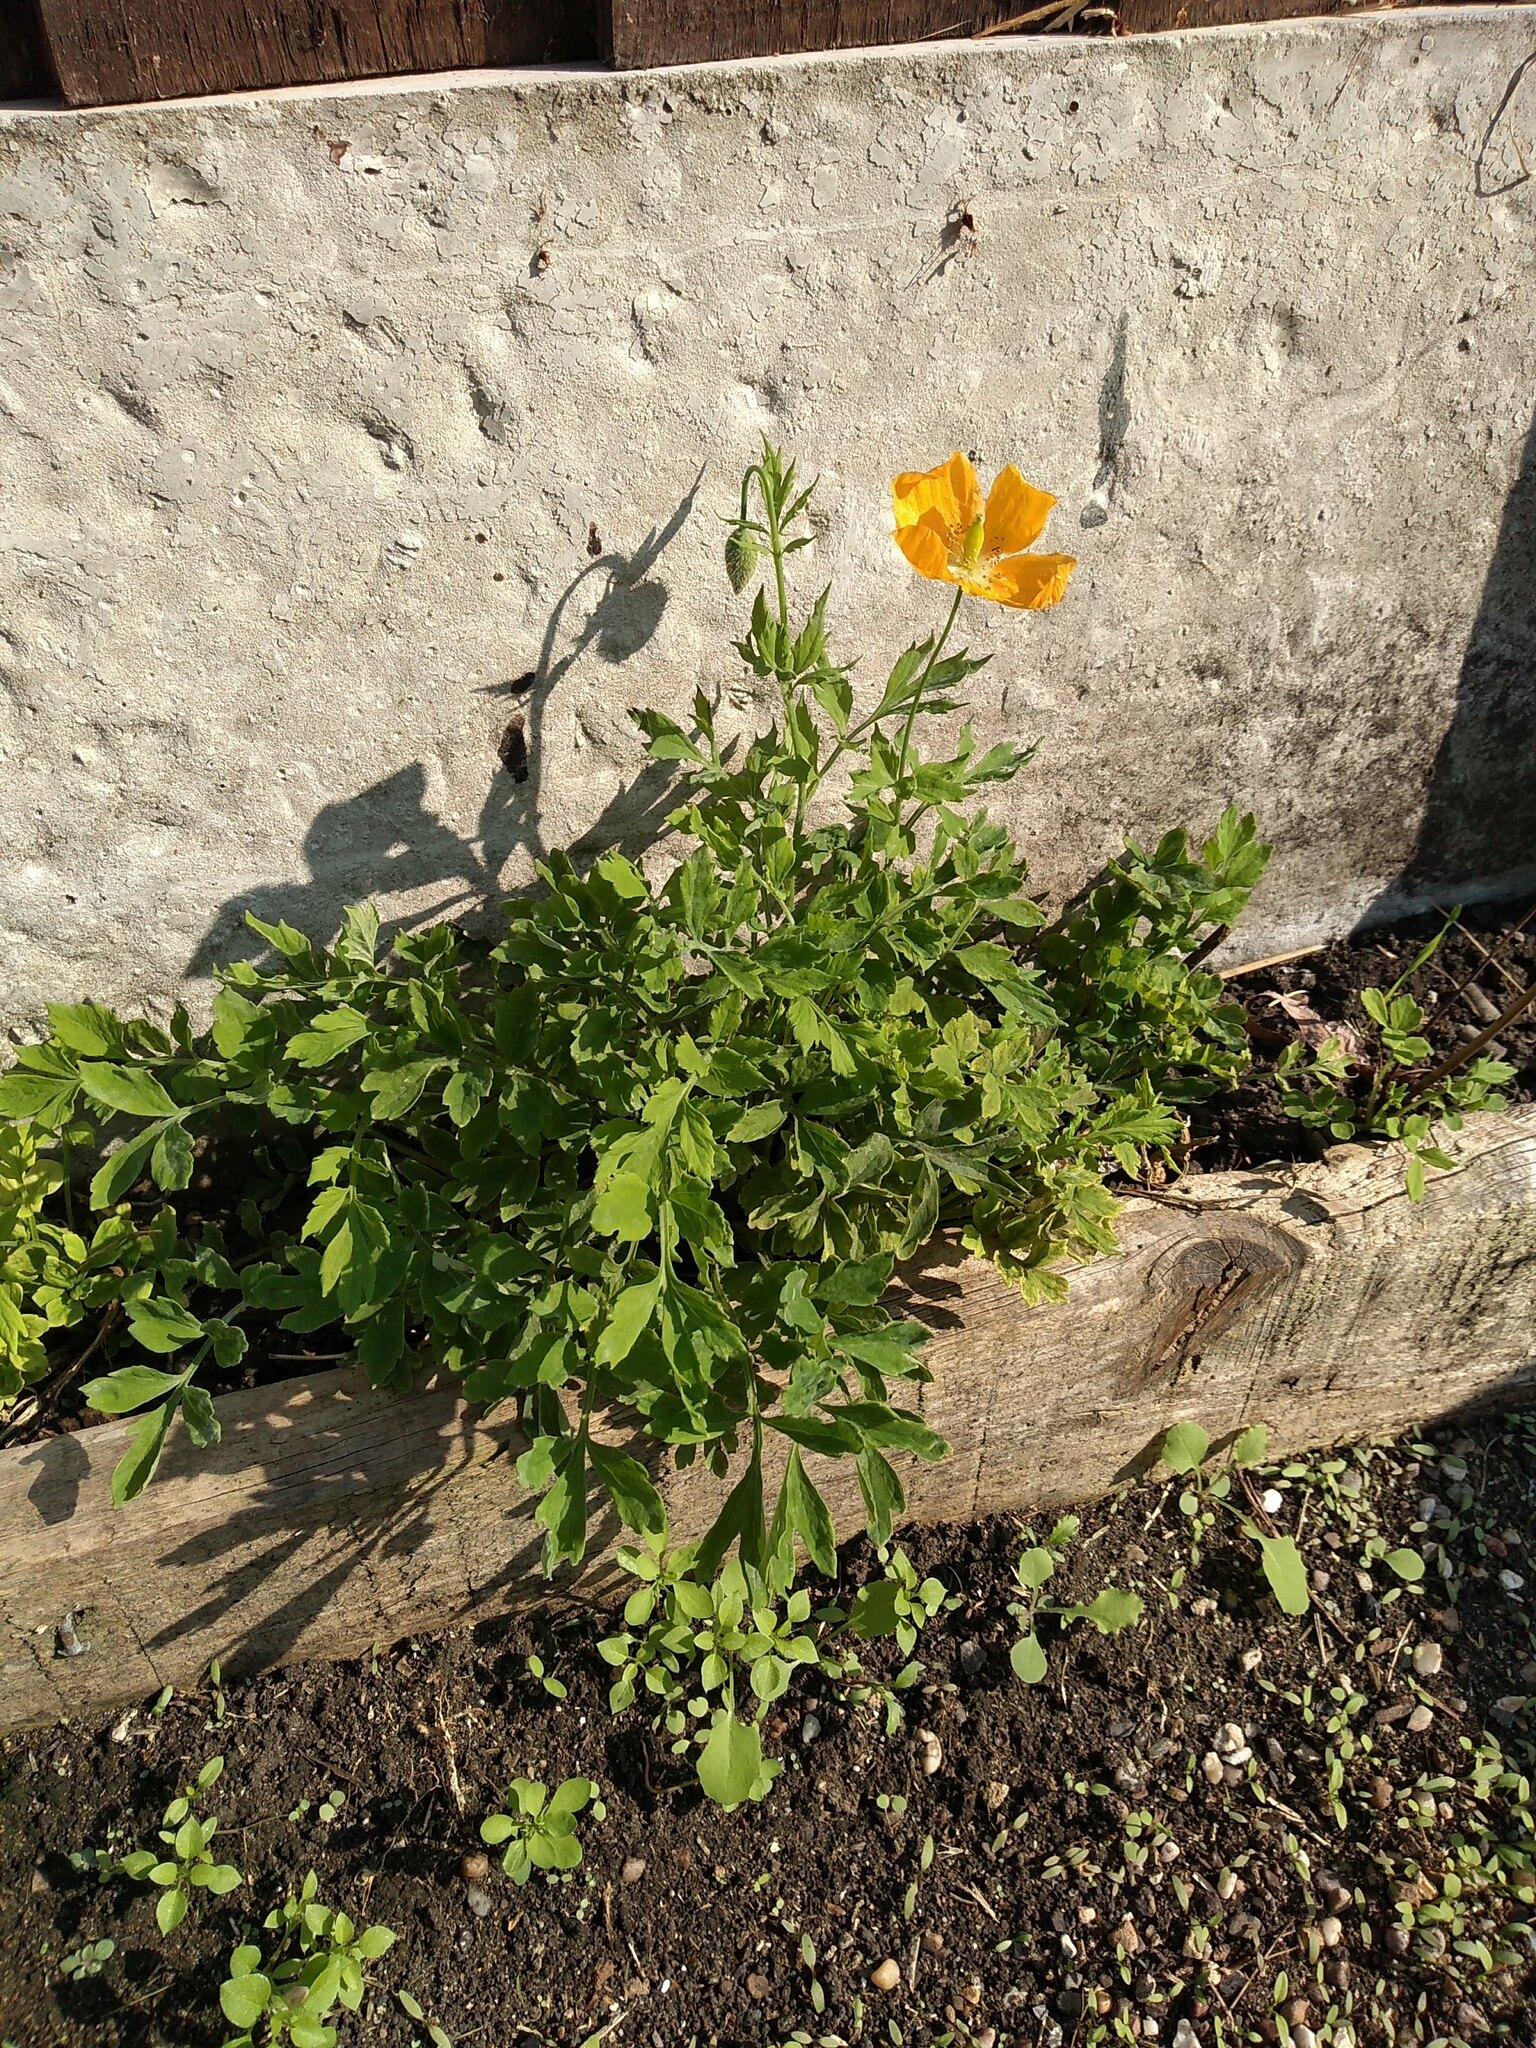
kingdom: Plantae
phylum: Tracheophyta
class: Magnoliopsida
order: Ranunculales
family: Papaveraceae
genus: Papaver
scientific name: Papaver cambricum
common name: Poppy
